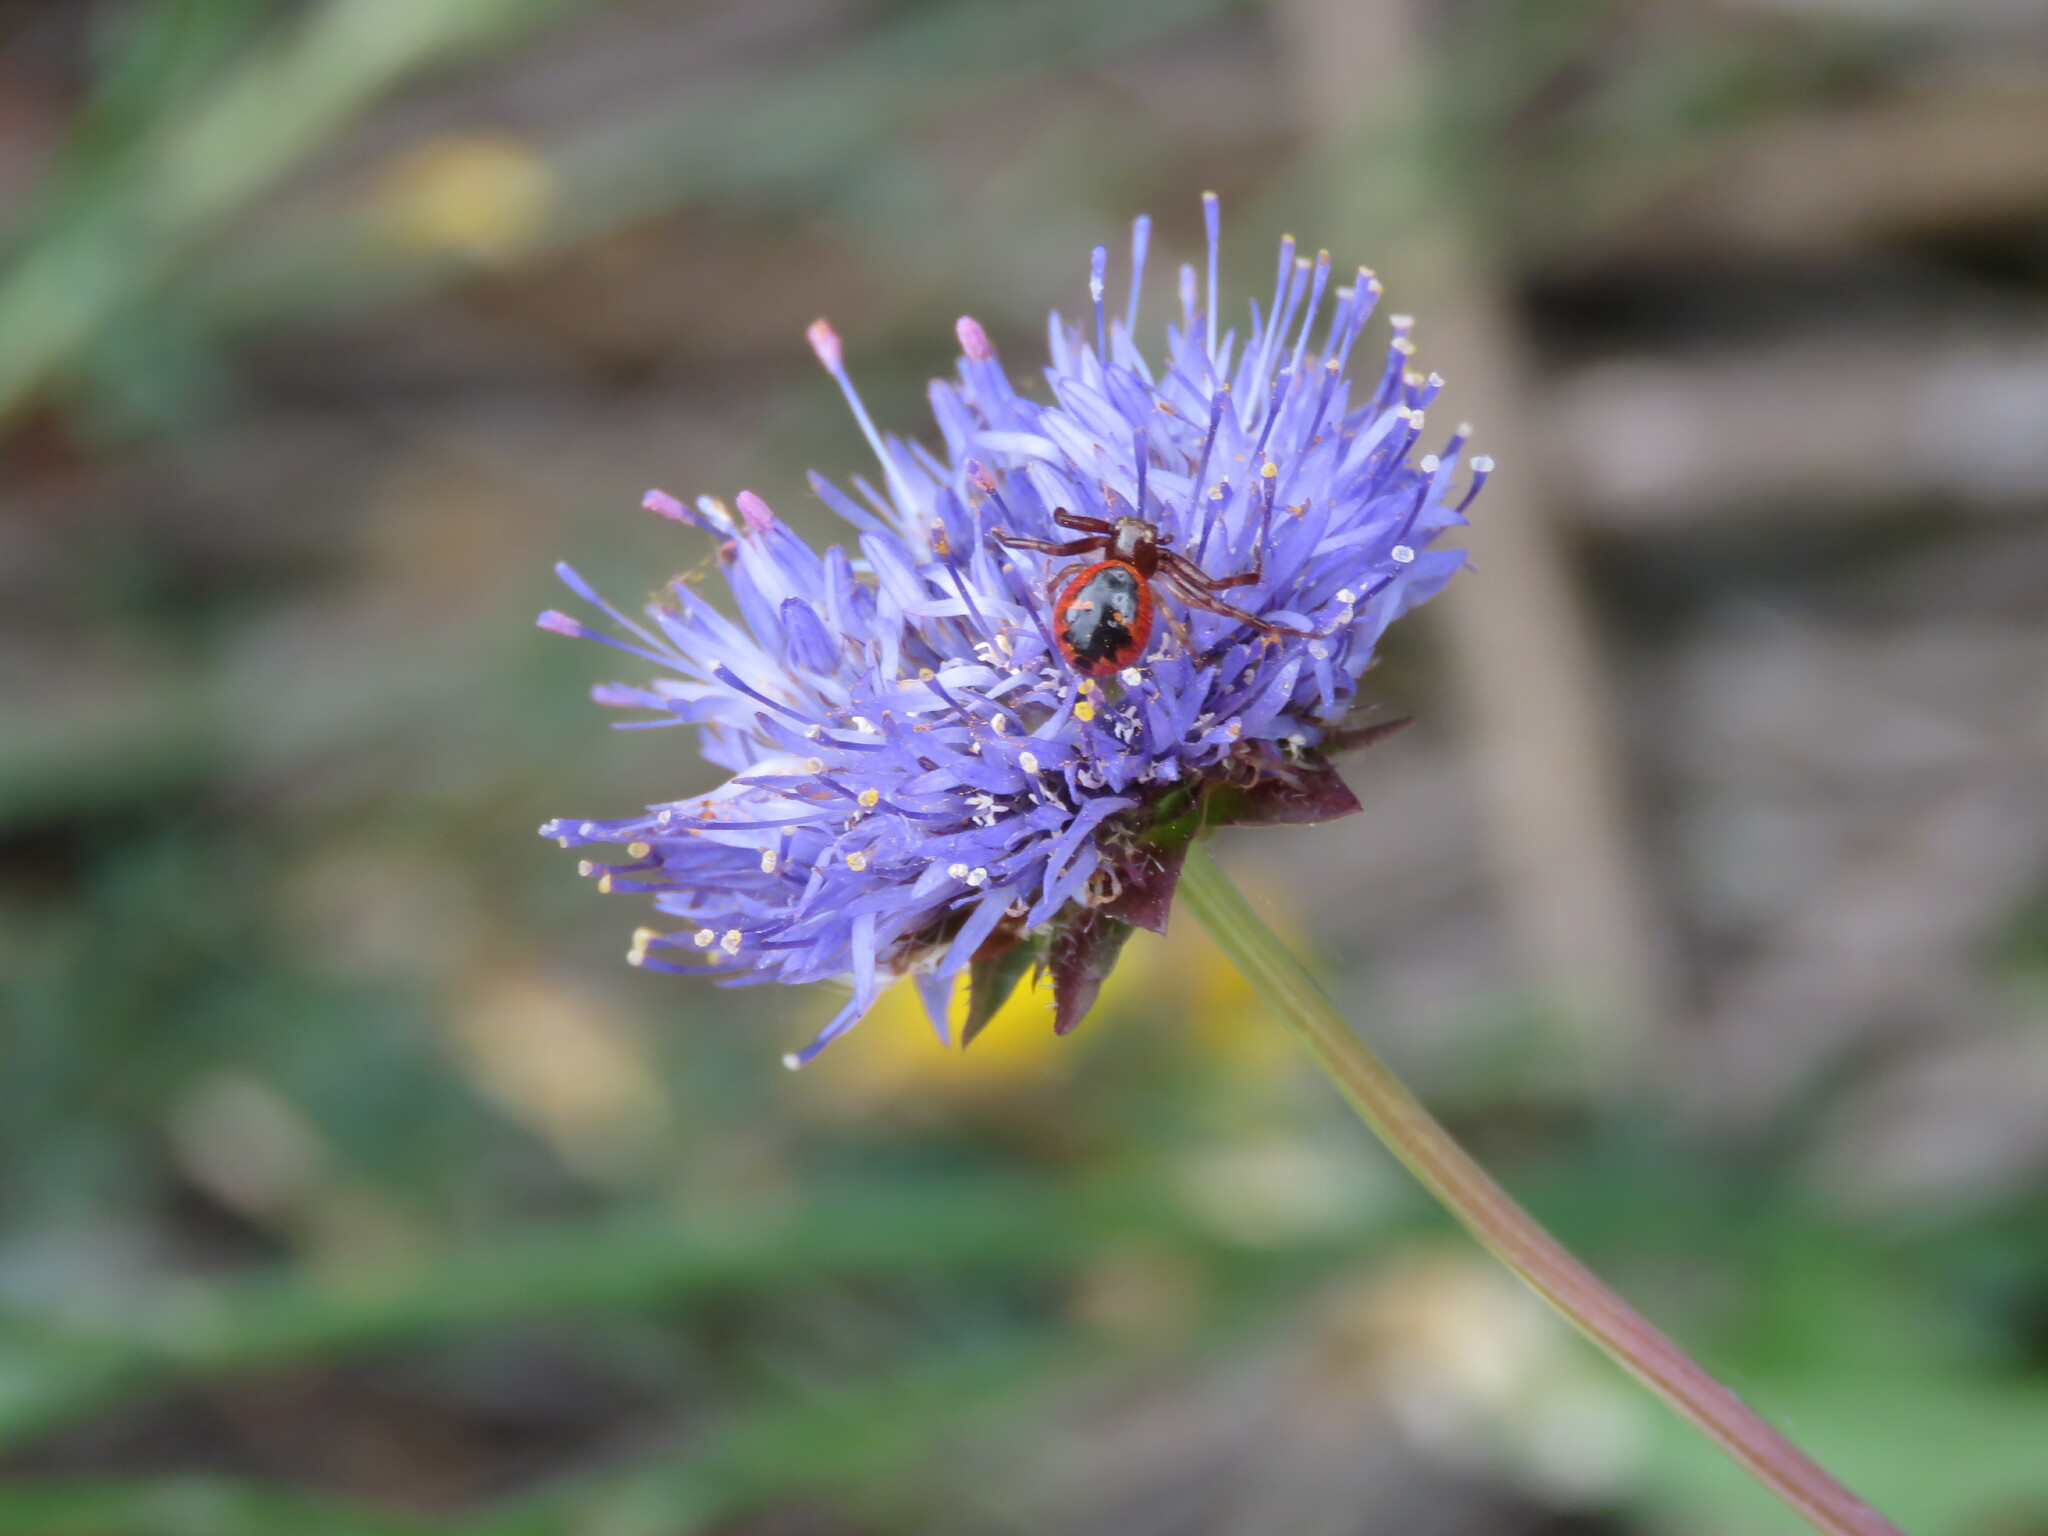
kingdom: Animalia
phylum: Arthropoda
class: Arachnida
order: Araneae
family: Thomisidae
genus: Synema
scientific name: Synema globosum
